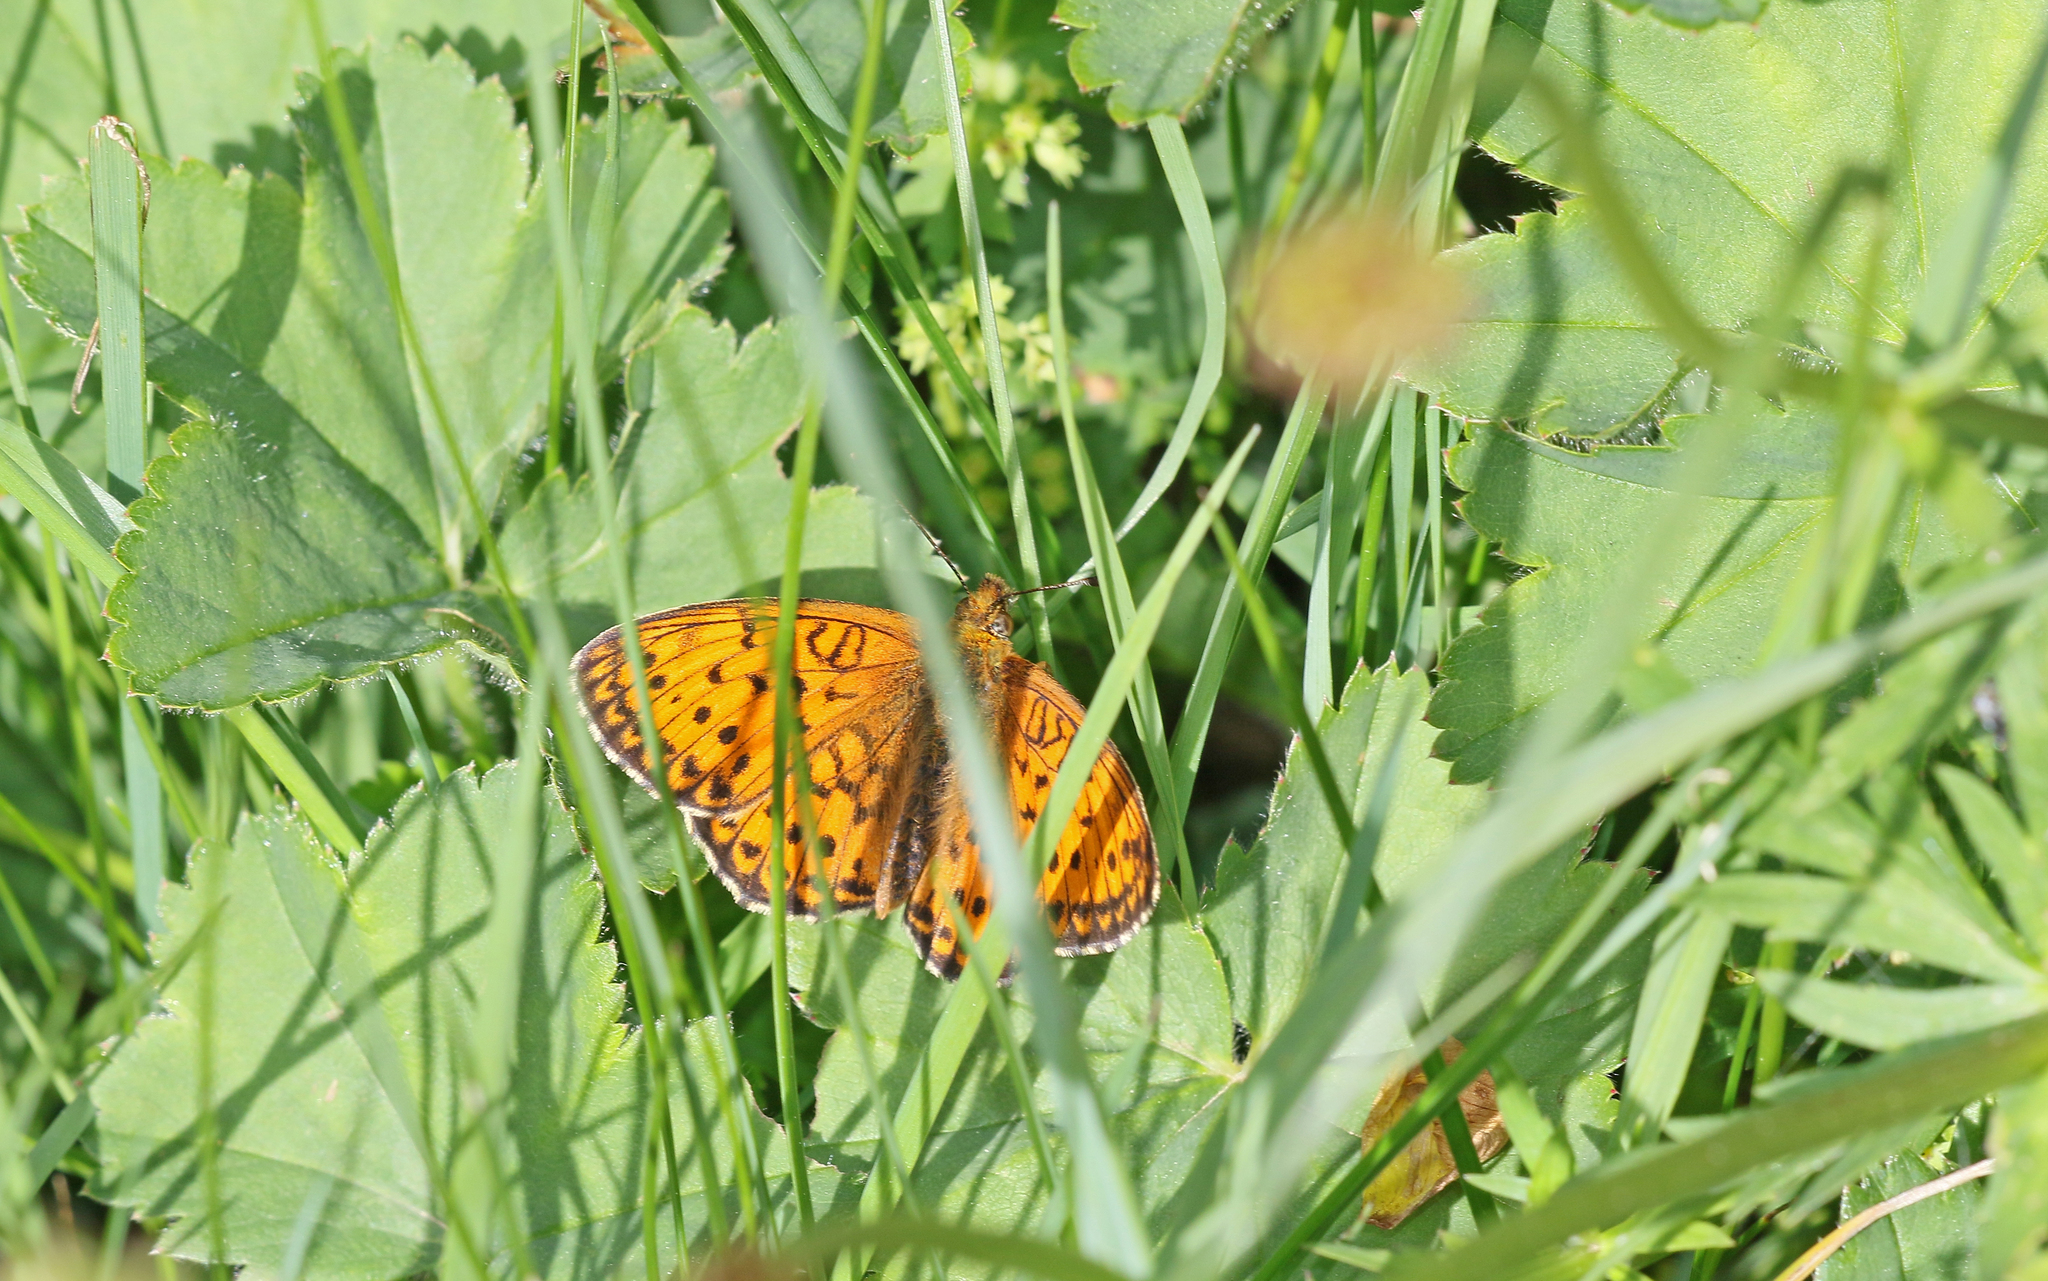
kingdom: Animalia
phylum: Arthropoda
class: Insecta
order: Lepidoptera
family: Nymphalidae
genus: Brenthis
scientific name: Brenthis ino
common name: Lesser marbled fritillary
